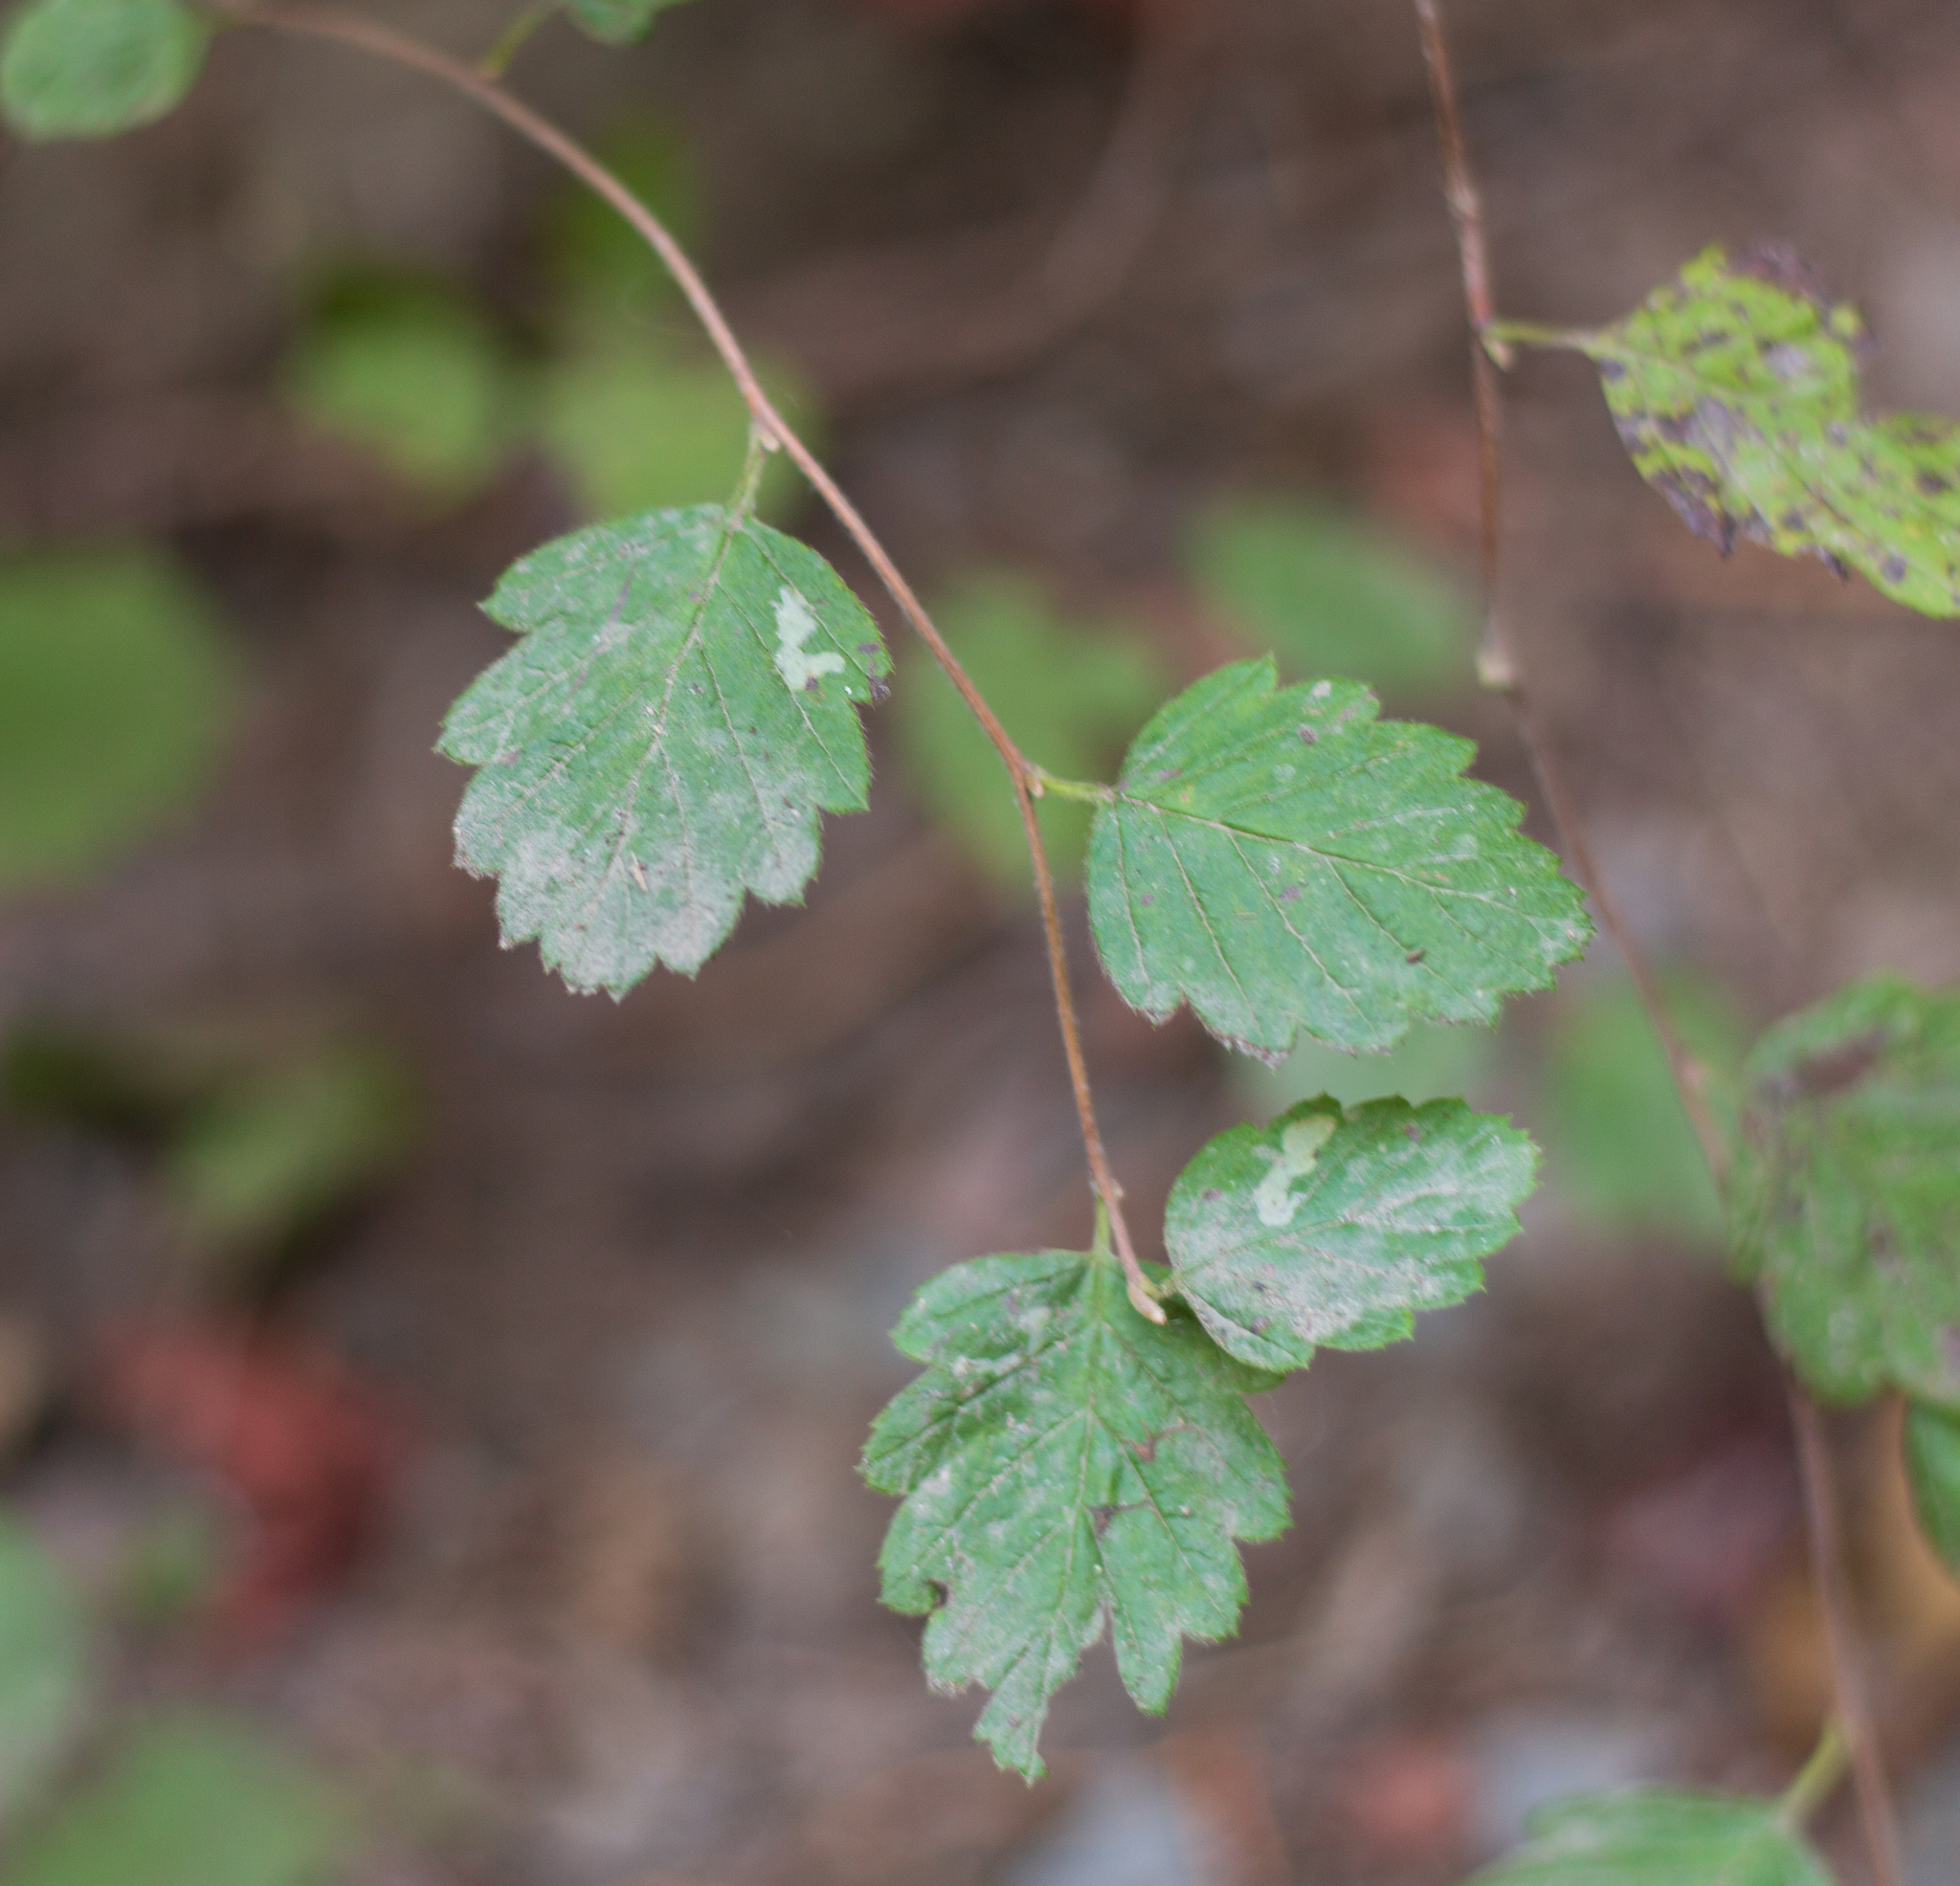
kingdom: Plantae
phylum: Tracheophyta
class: Magnoliopsida
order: Rosales
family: Rosaceae
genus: Holodiscus
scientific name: Holodiscus discolor
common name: Oceanspray
